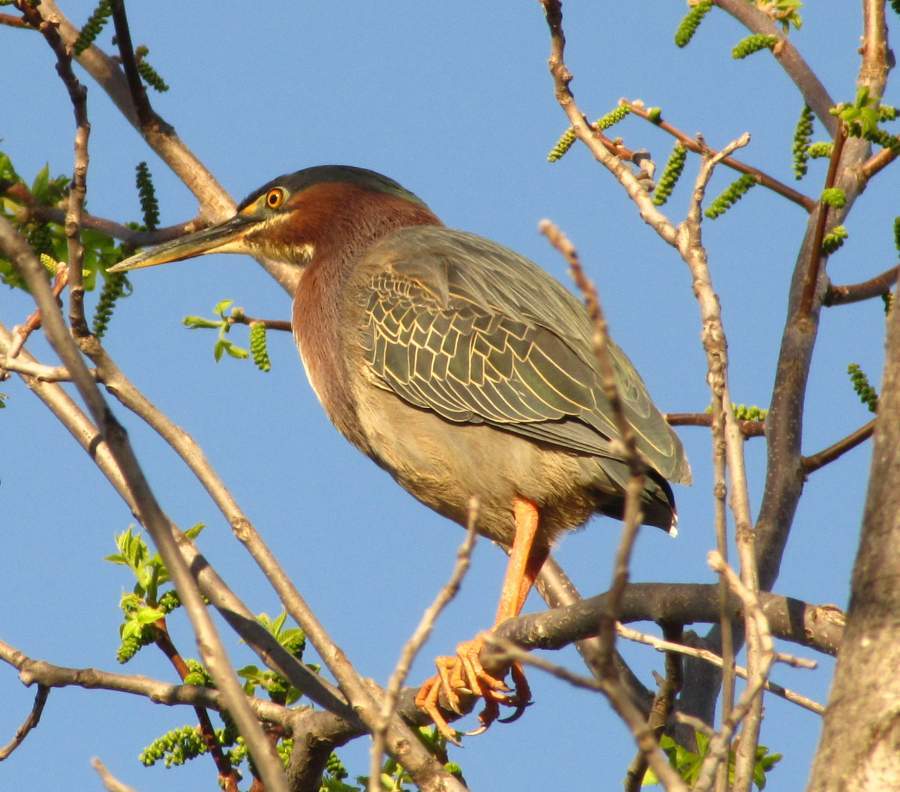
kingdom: Animalia
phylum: Chordata
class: Aves
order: Pelecaniformes
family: Ardeidae
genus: Butorides
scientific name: Butorides virescens
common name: Green heron
